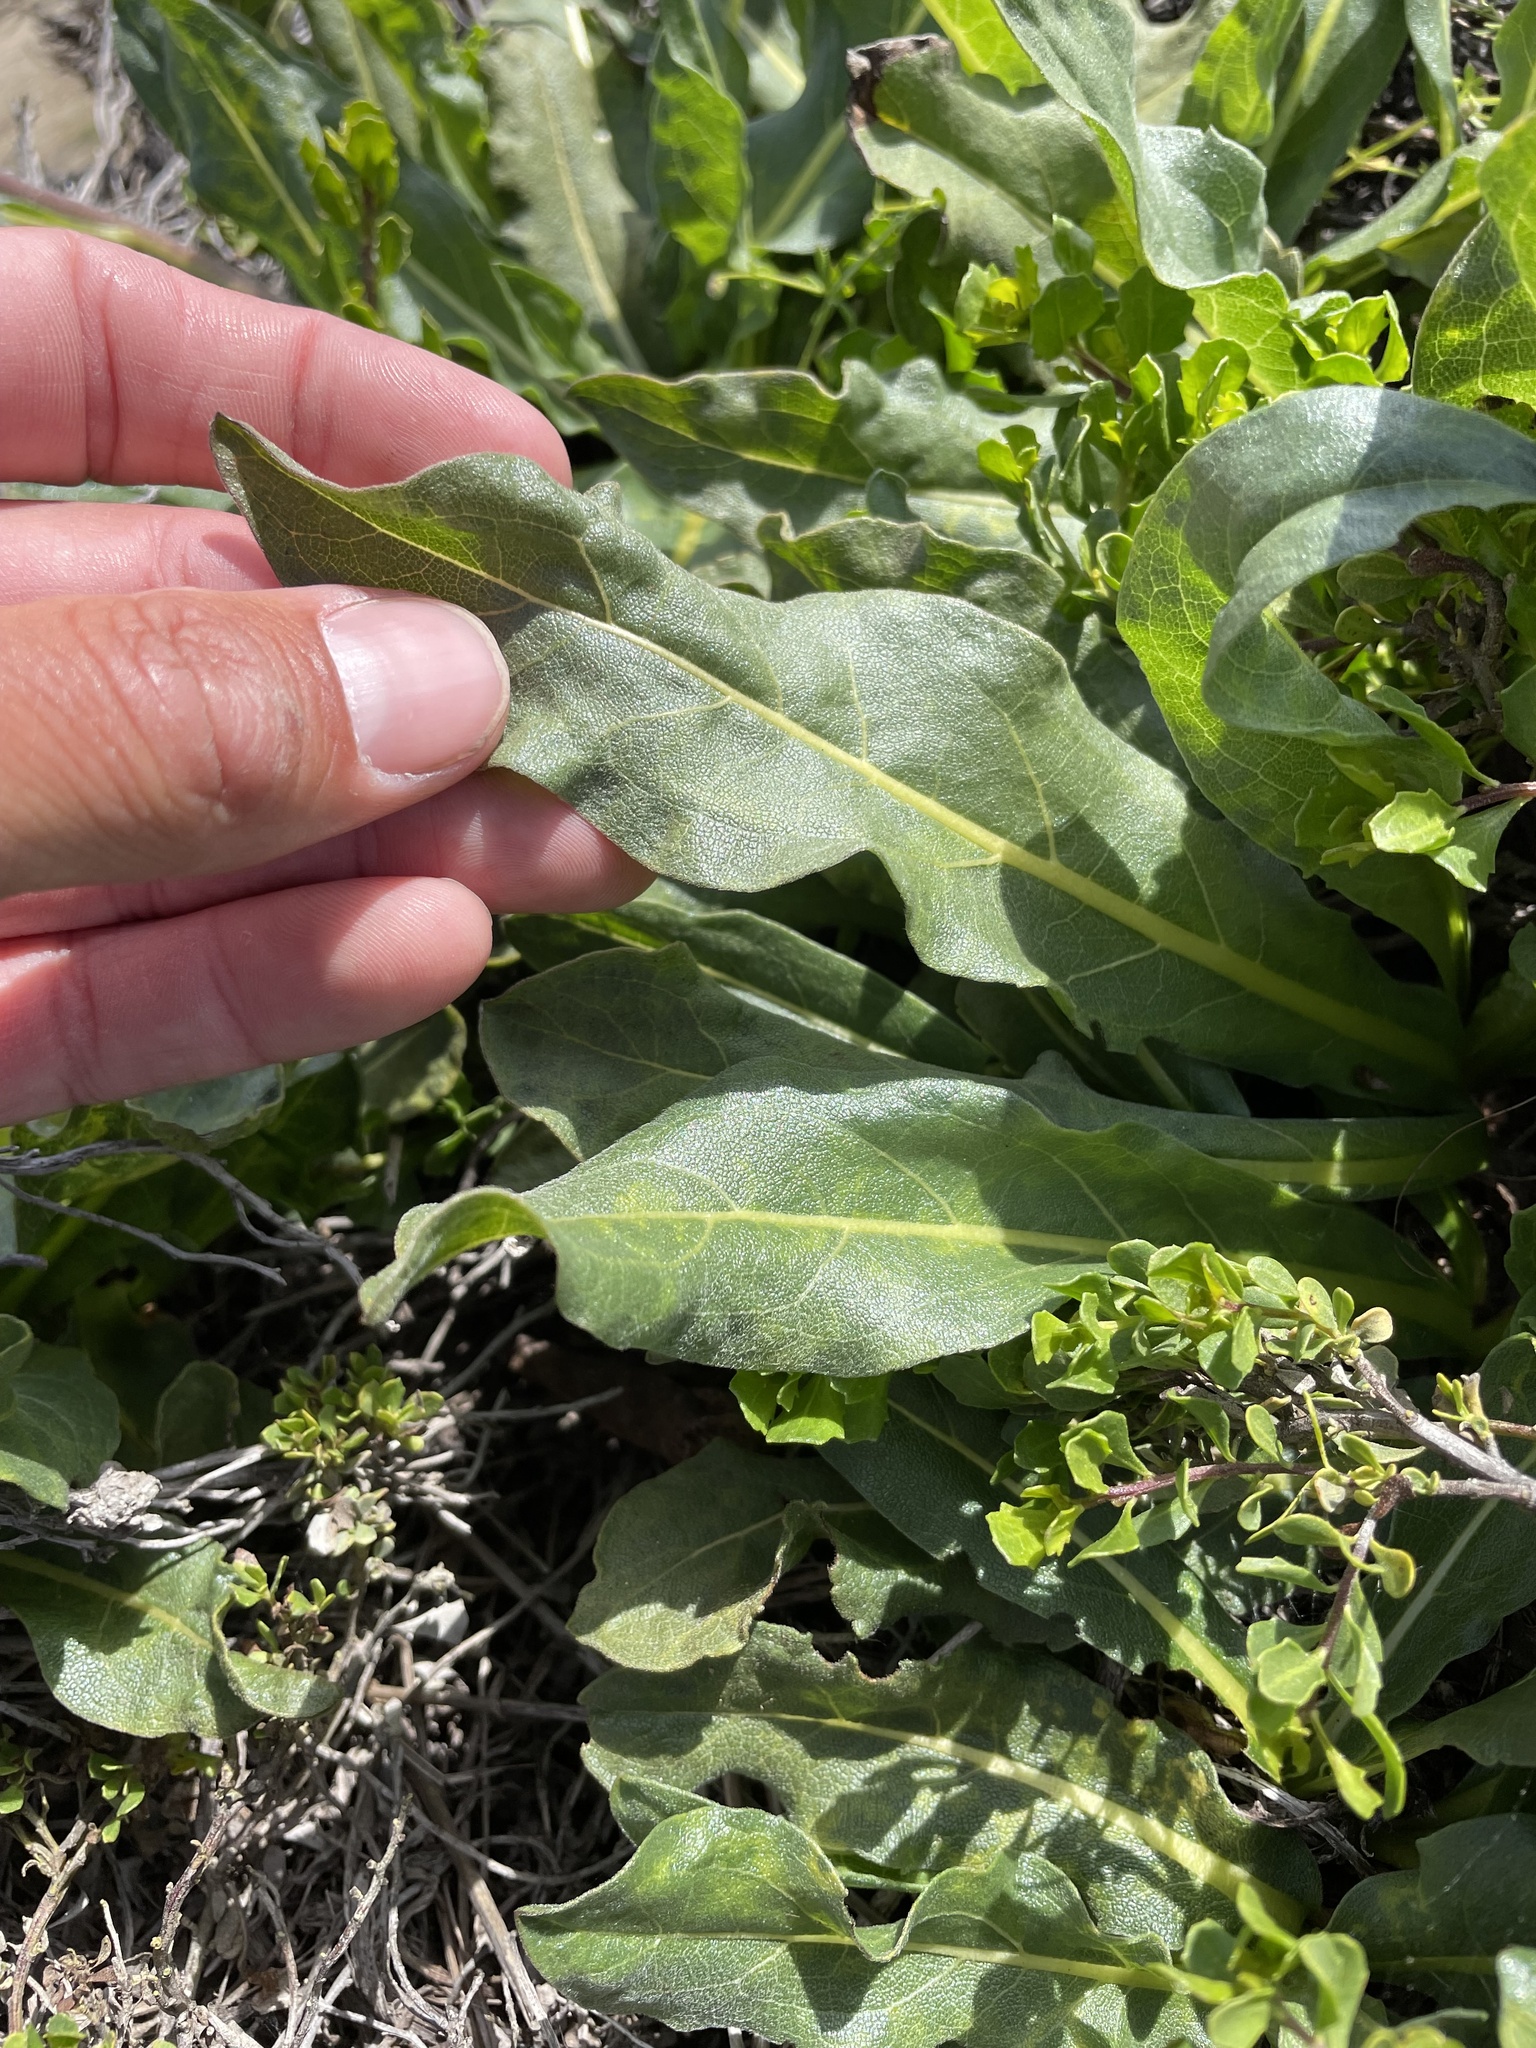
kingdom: Plantae
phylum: Tracheophyta
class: Magnoliopsida
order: Asterales
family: Asteraceae
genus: Wyethia
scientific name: Wyethia angustifolia
